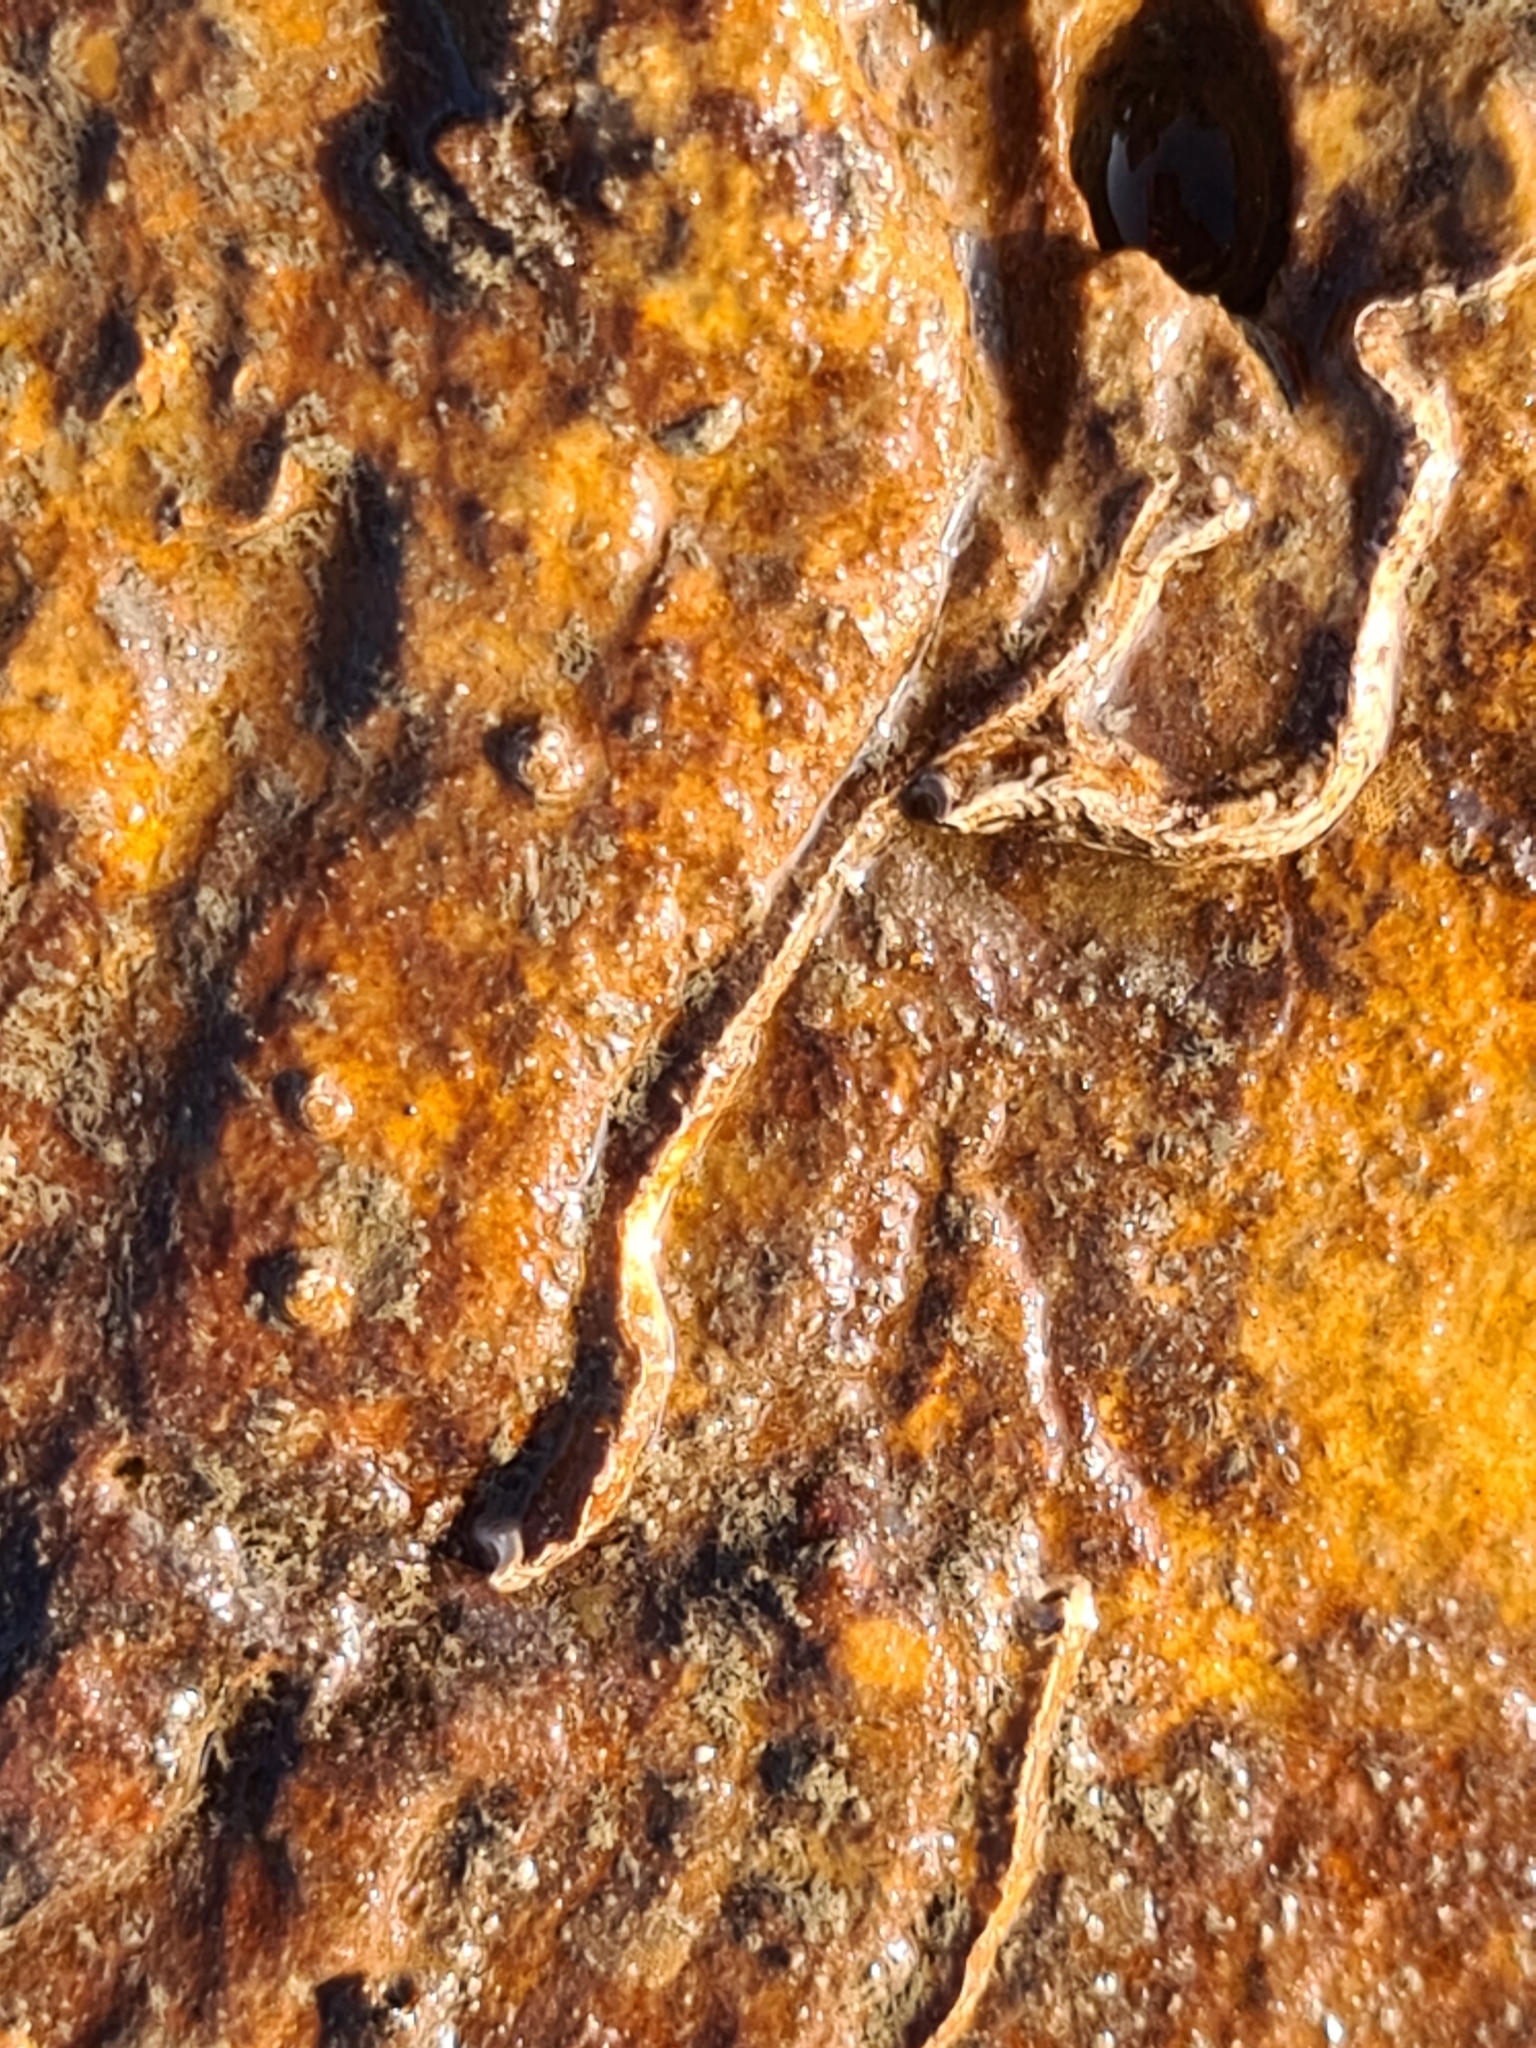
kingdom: Animalia
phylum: Annelida
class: Polychaeta
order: Sabellida
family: Serpulidae
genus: Spirobranchus
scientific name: Spirobranchus triqueter
